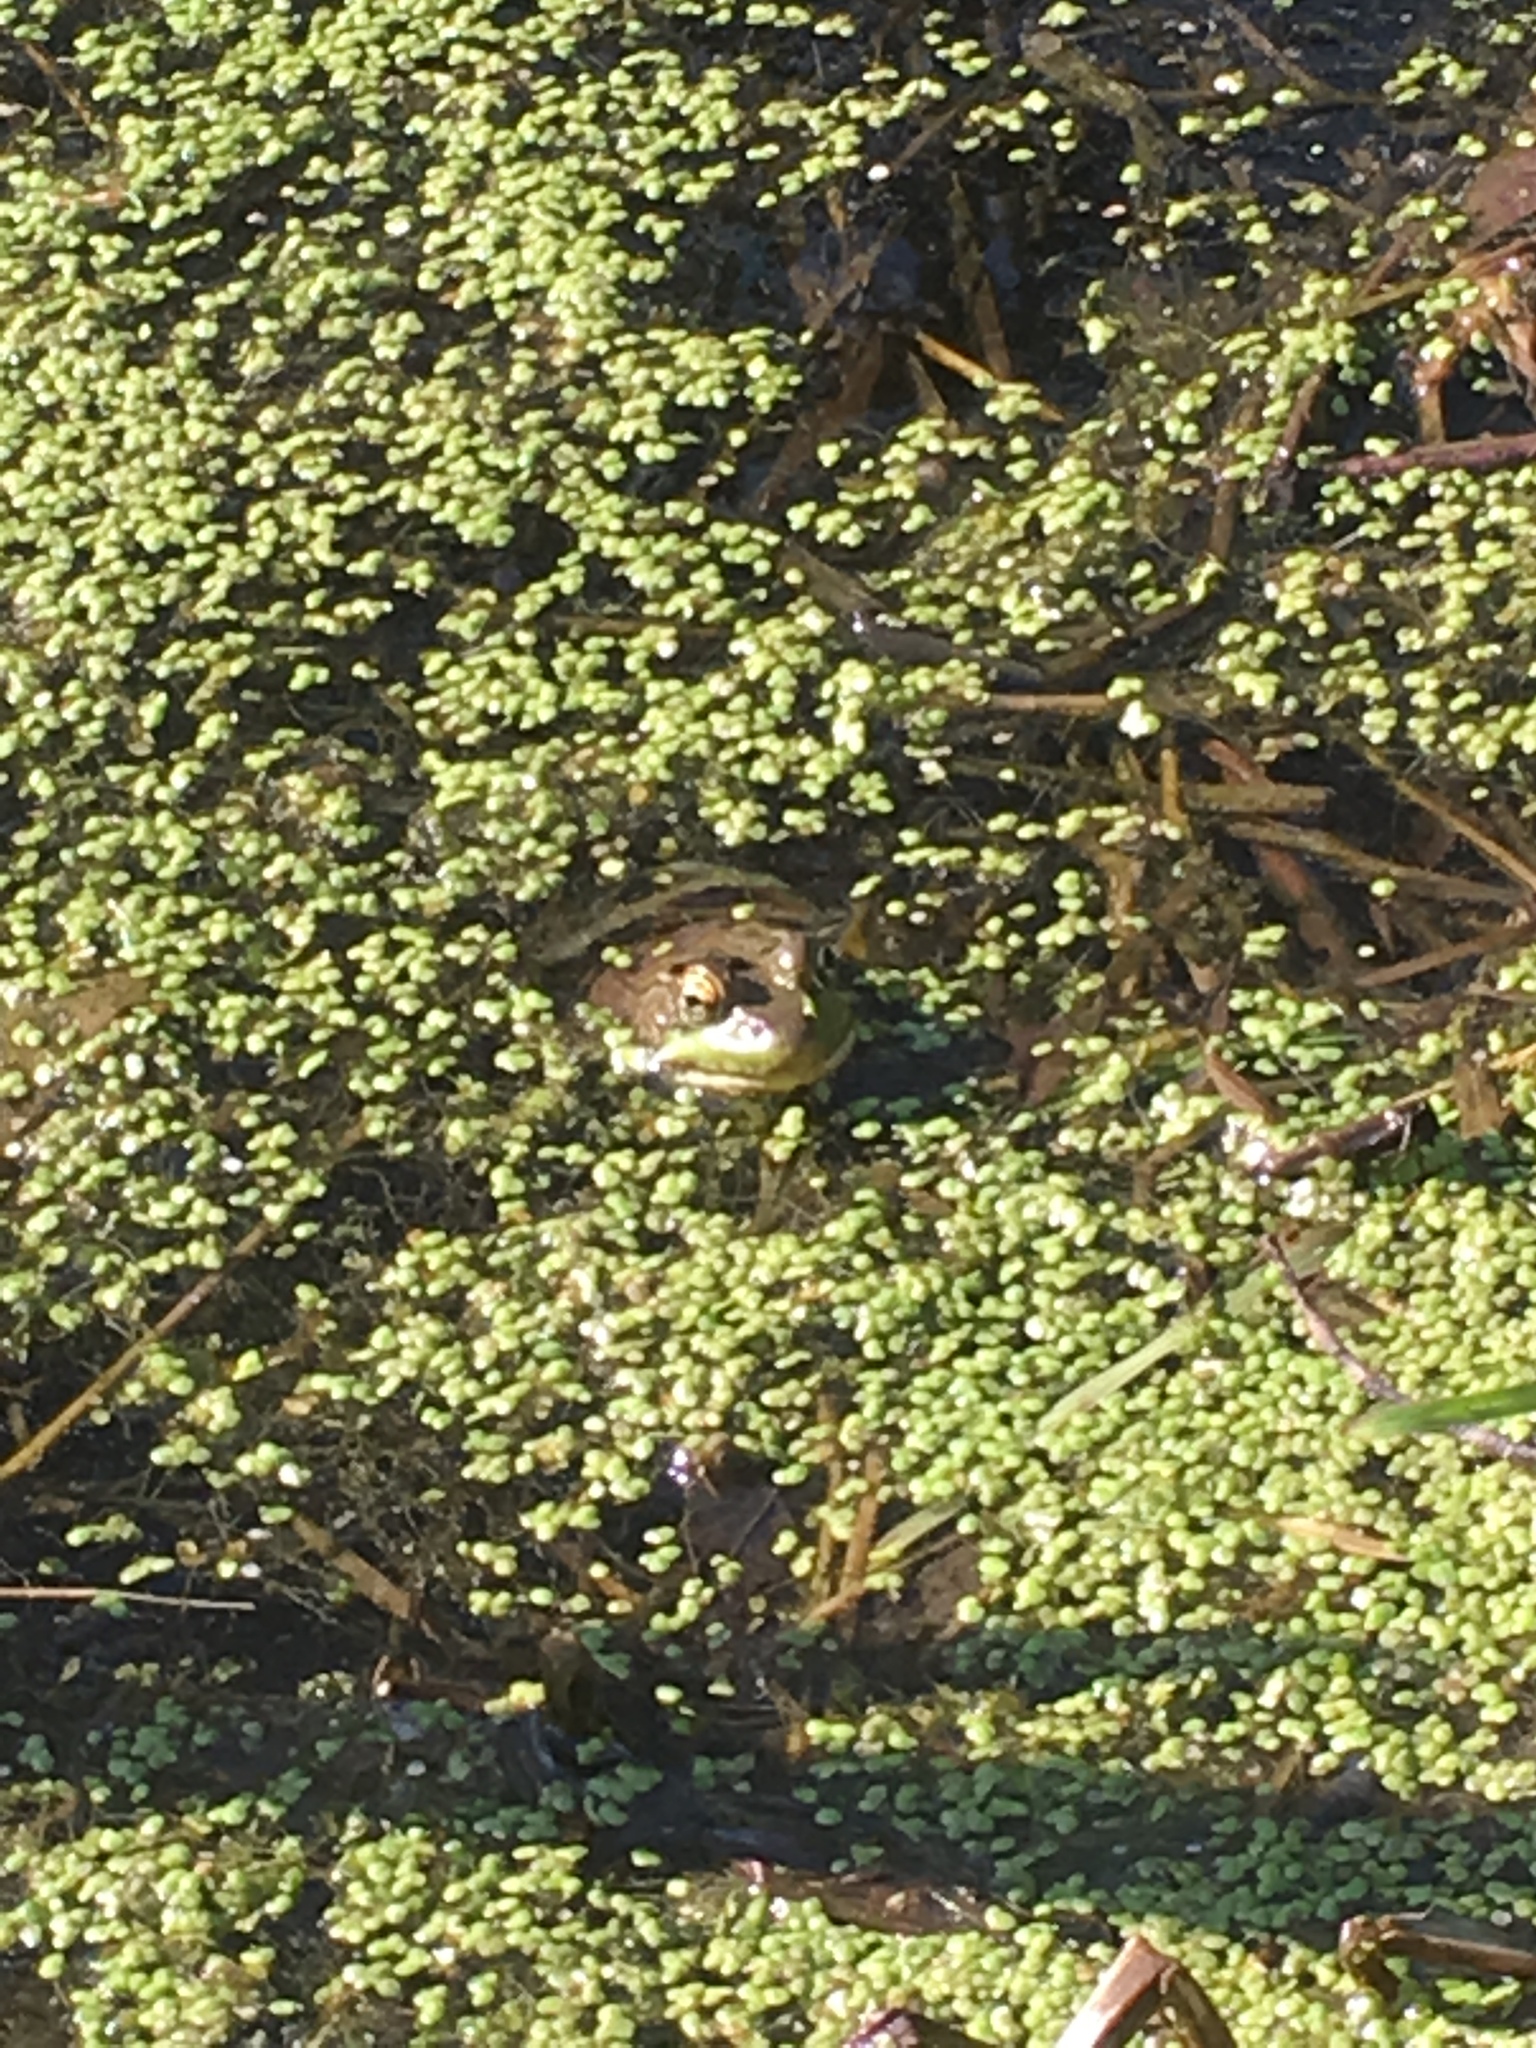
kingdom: Animalia
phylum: Chordata
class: Amphibia
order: Anura
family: Ranidae
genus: Lithobates
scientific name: Lithobates clamitans
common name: Green frog
